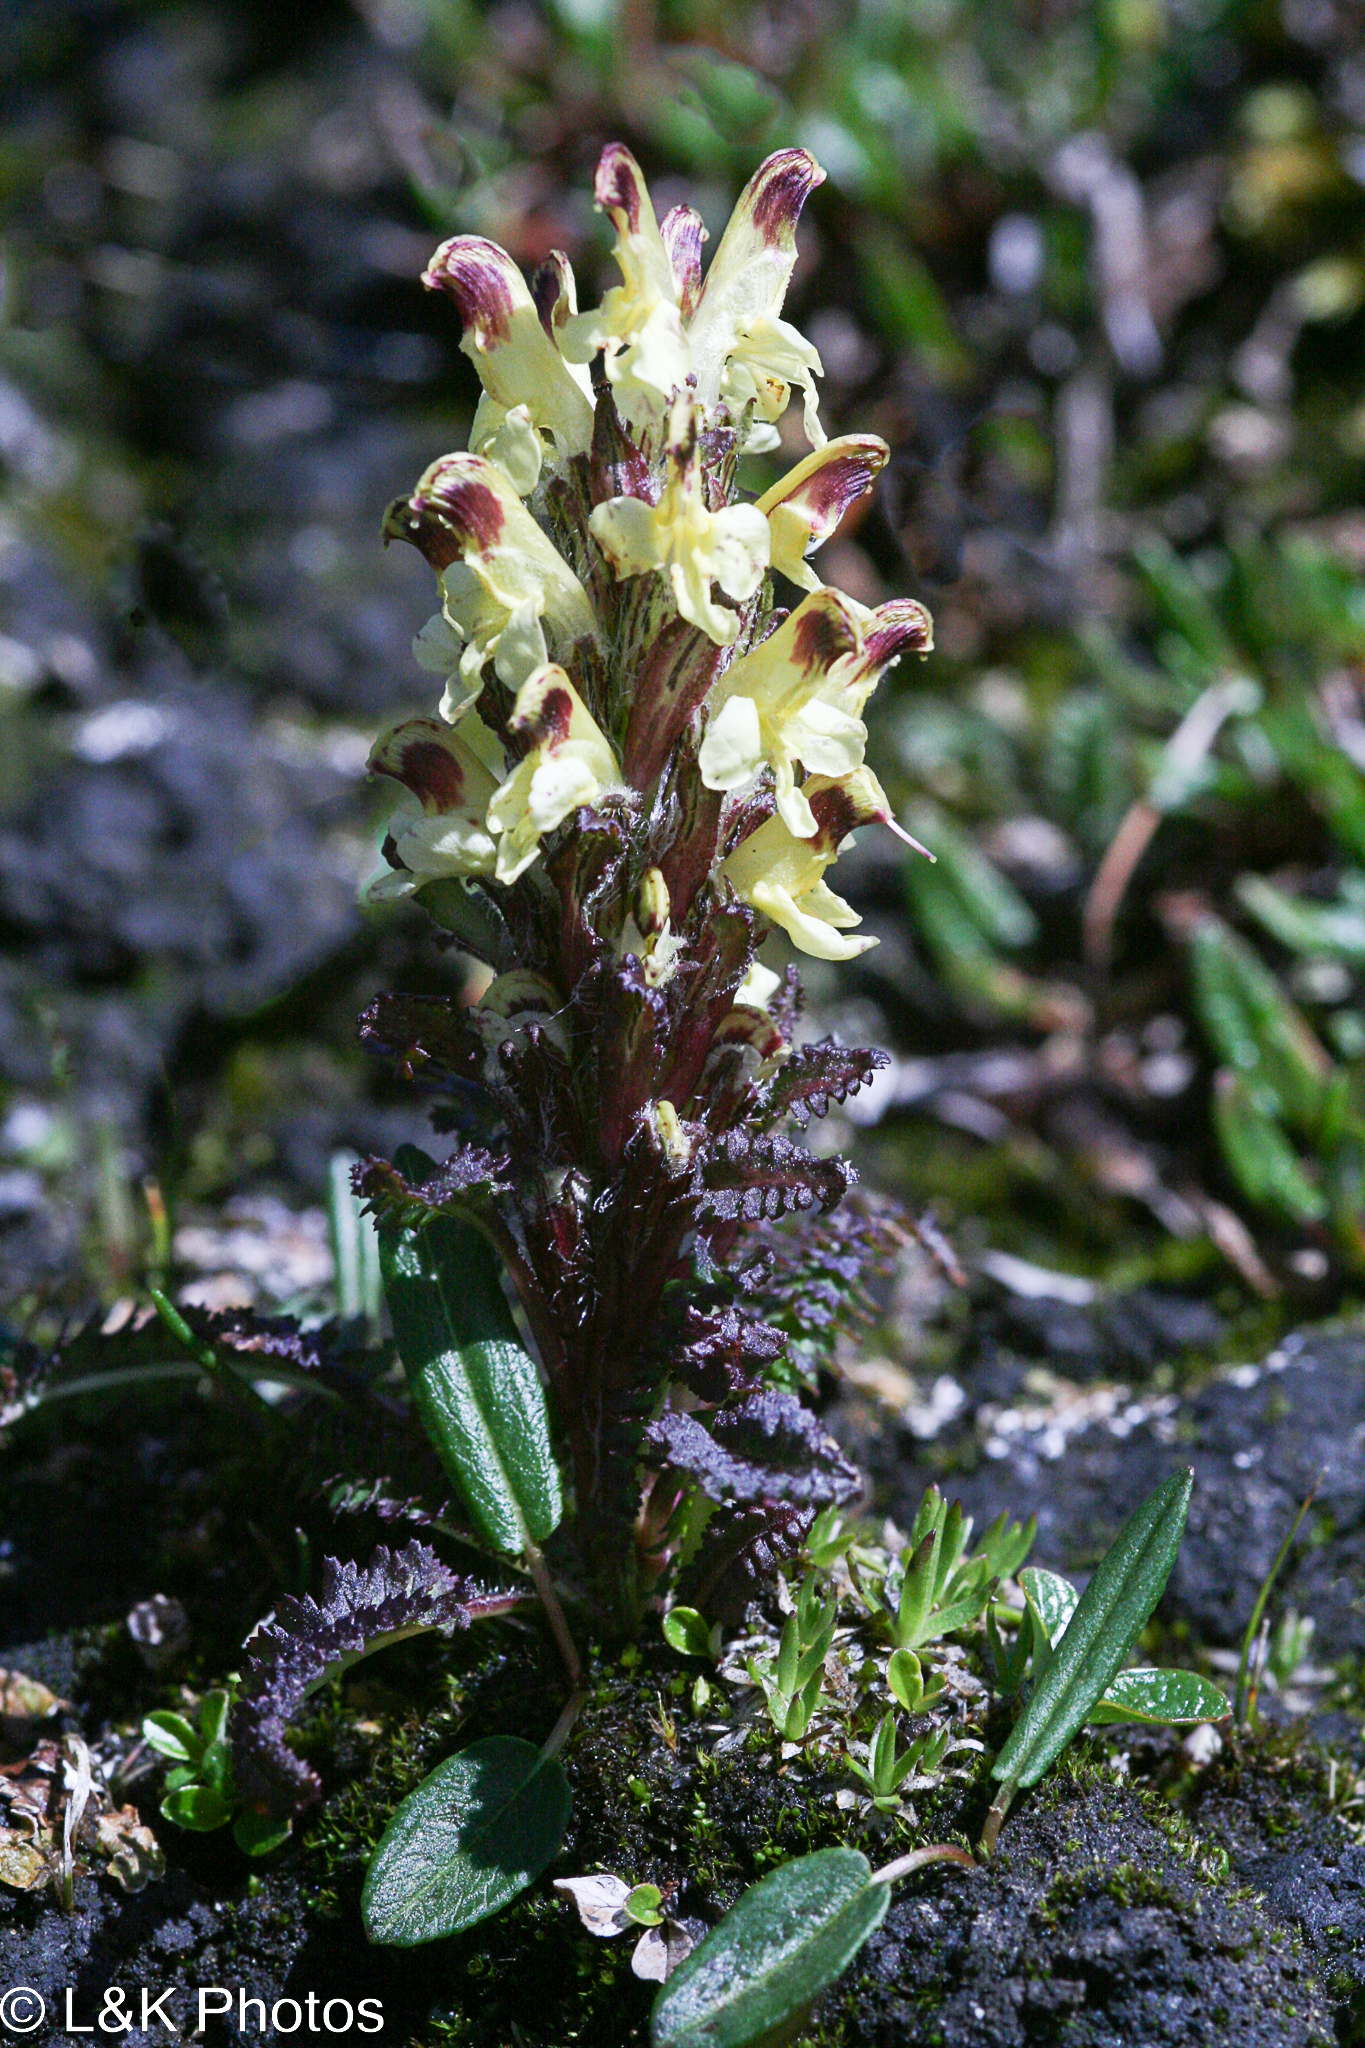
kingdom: Plantae
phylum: Tracheophyta
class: Magnoliopsida
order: Lamiales
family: Orobanchaceae
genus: Pedicularis
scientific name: Pedicularis oederi
